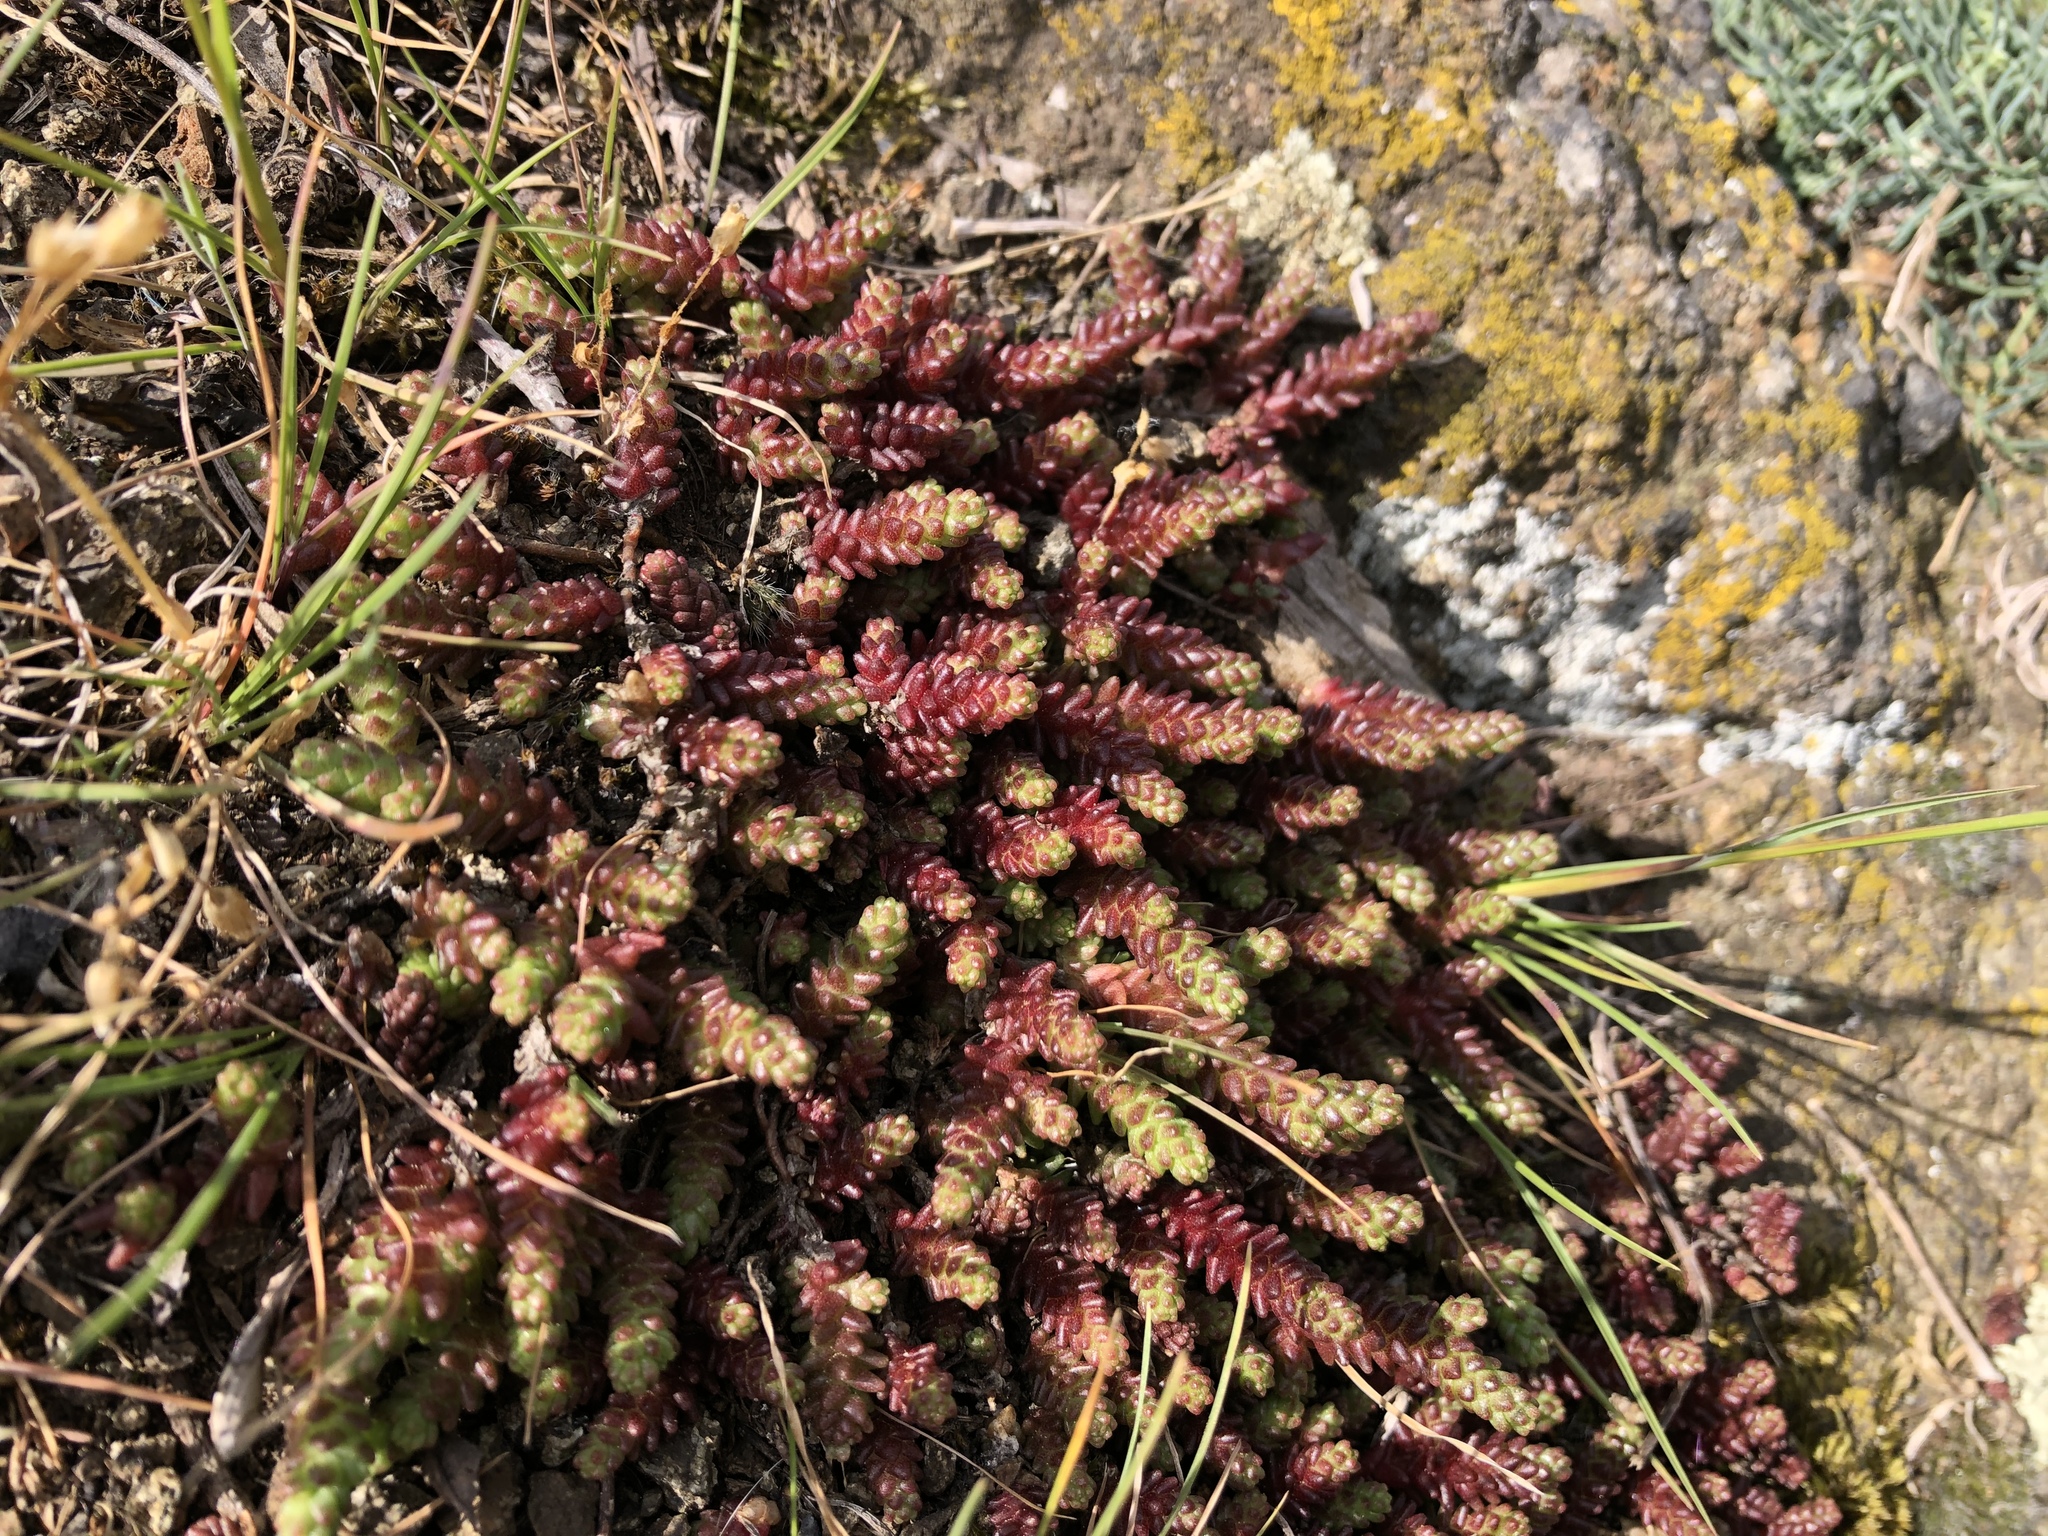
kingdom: Plantae
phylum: Tracheophyta
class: Magnoliopsida
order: Saxifragales
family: Crassulaceae
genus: Sedum
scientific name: Sedum acre
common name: Biting stonecrop
